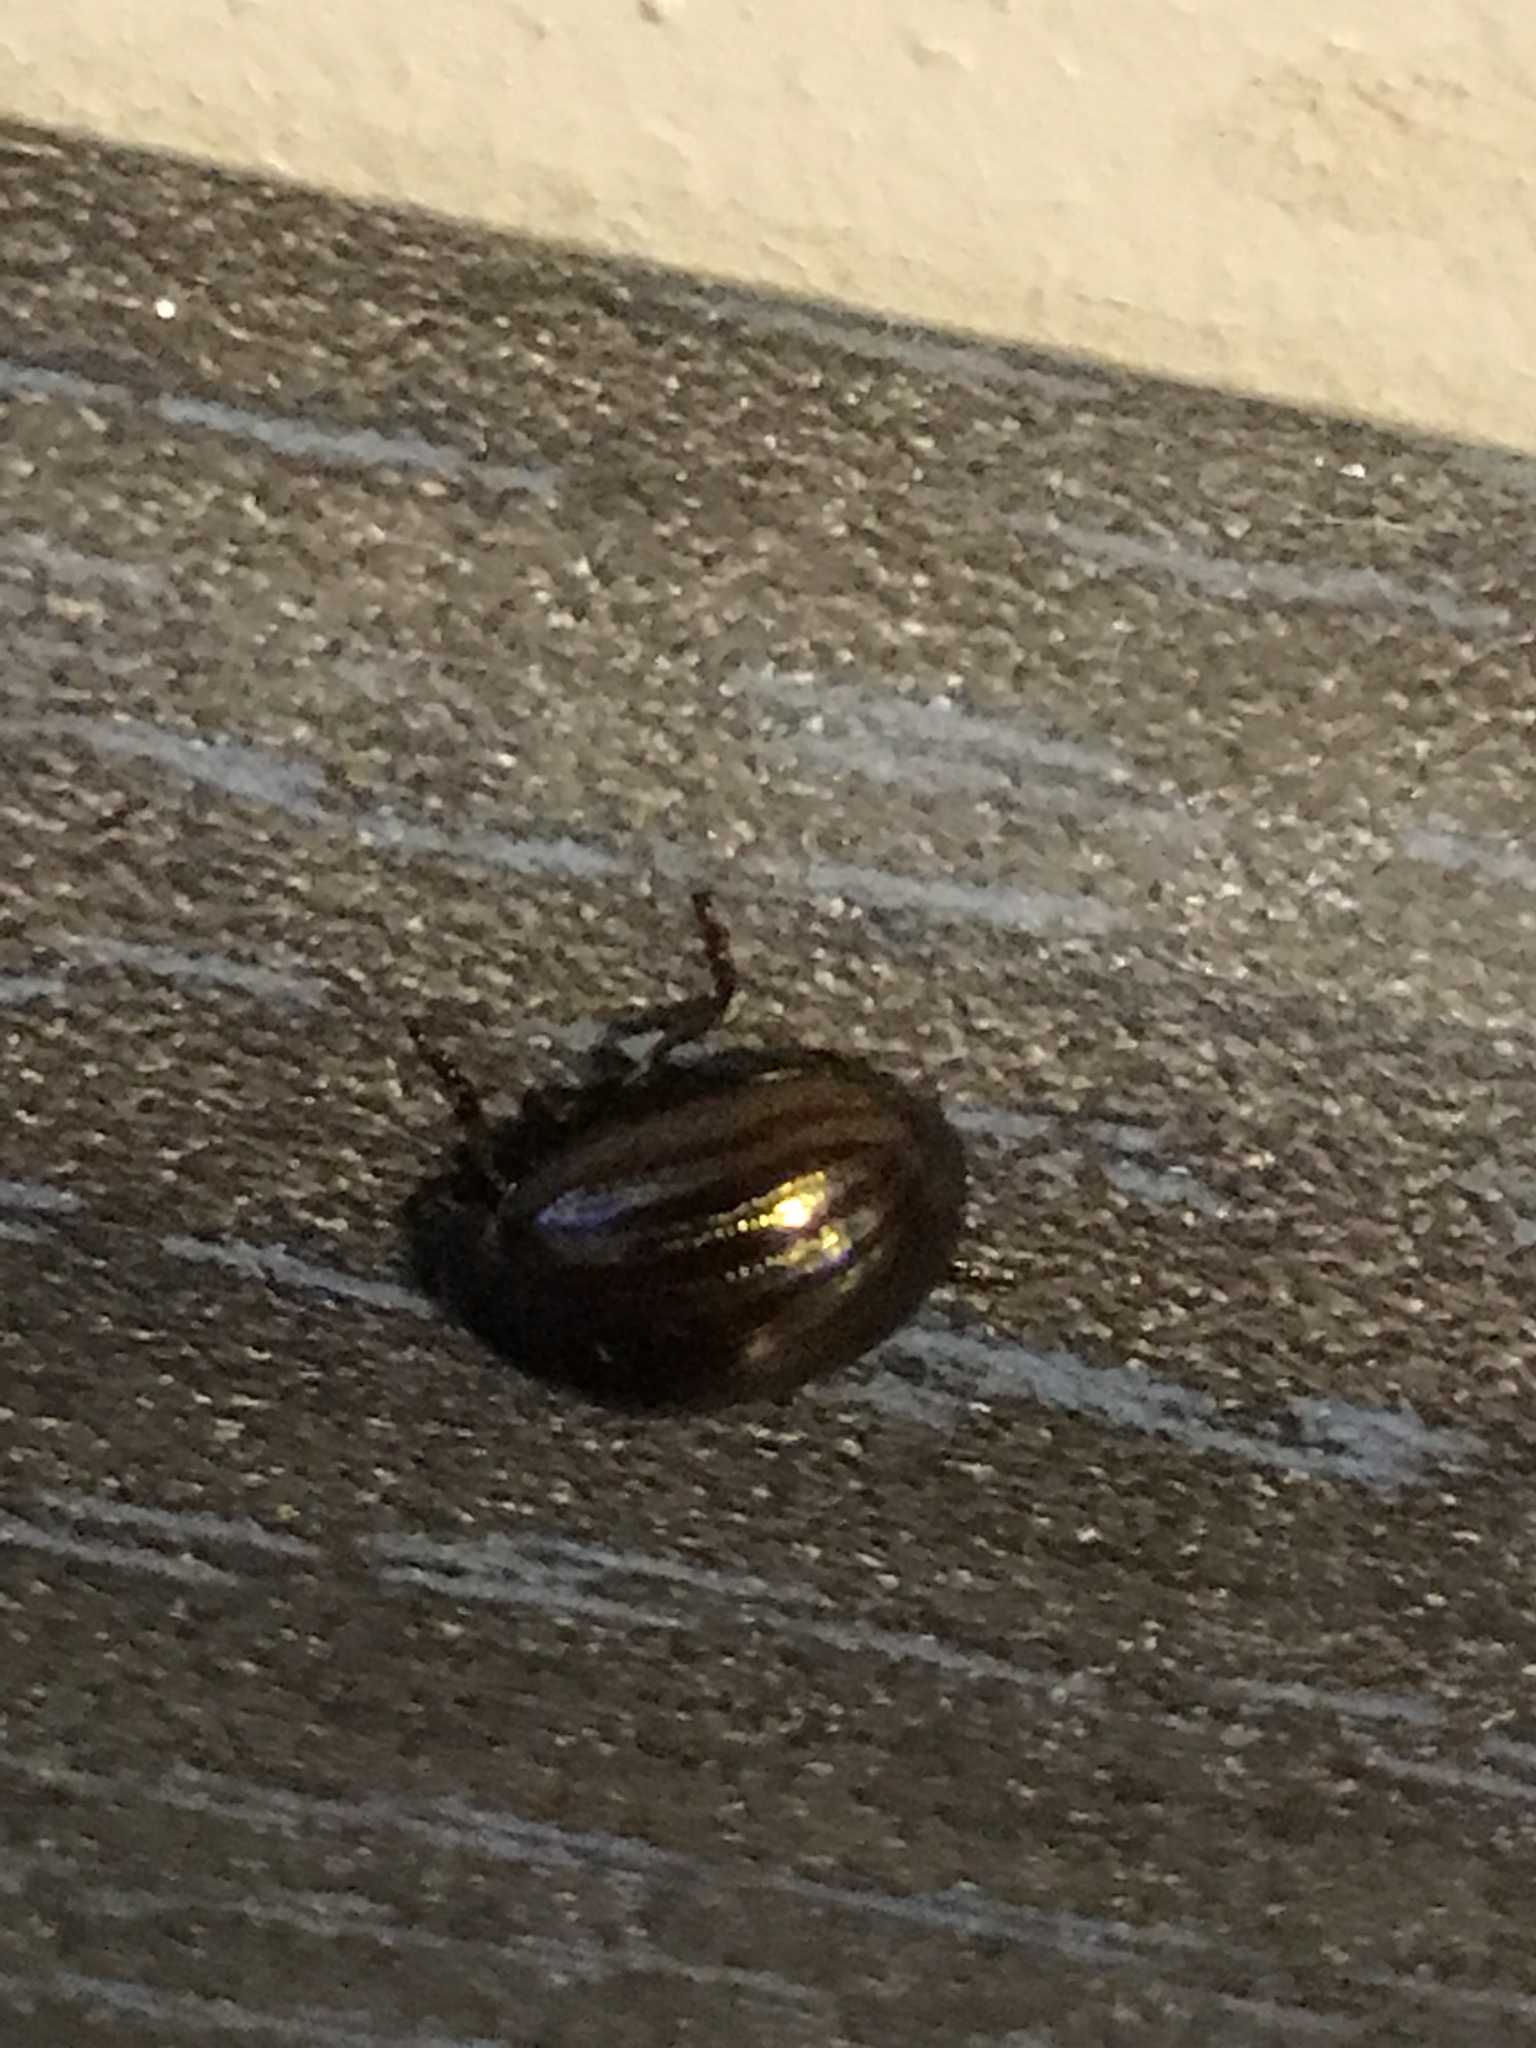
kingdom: Animalia
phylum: Arthropoda
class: Insecta
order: Coleoptera
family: Chrysomelidae
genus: Chrysolina
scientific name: Chrysolina americana
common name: Rosemary beetle
